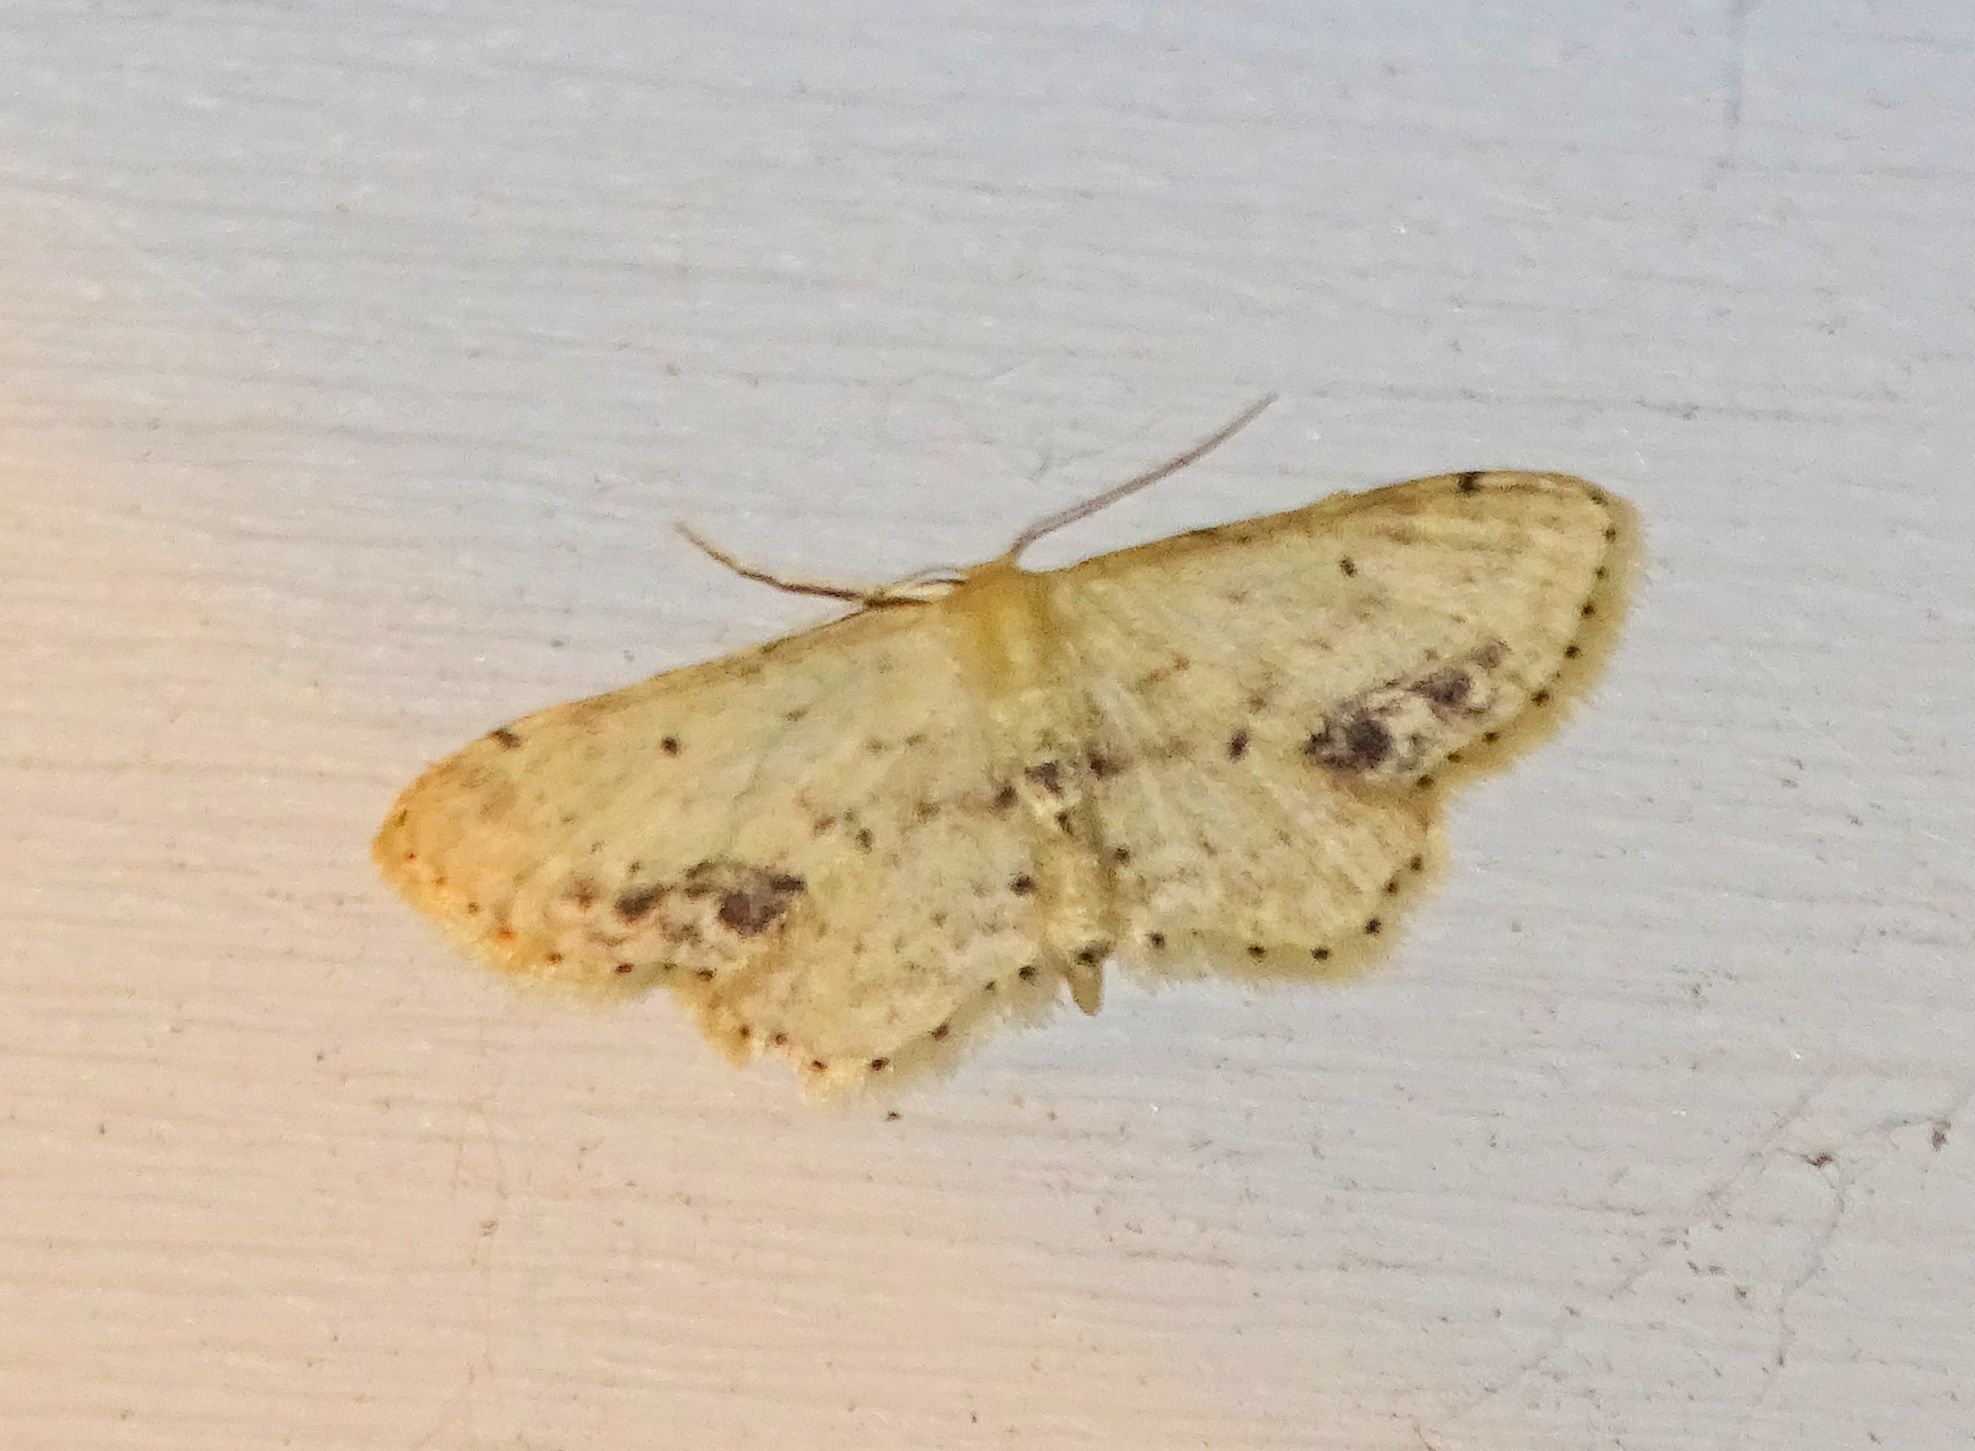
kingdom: Animalia
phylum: Arthropoda
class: Insecta
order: Lepidoptera
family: Geometridae
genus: Idaea
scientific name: Idaea dimidiata
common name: Single-dotted wave
